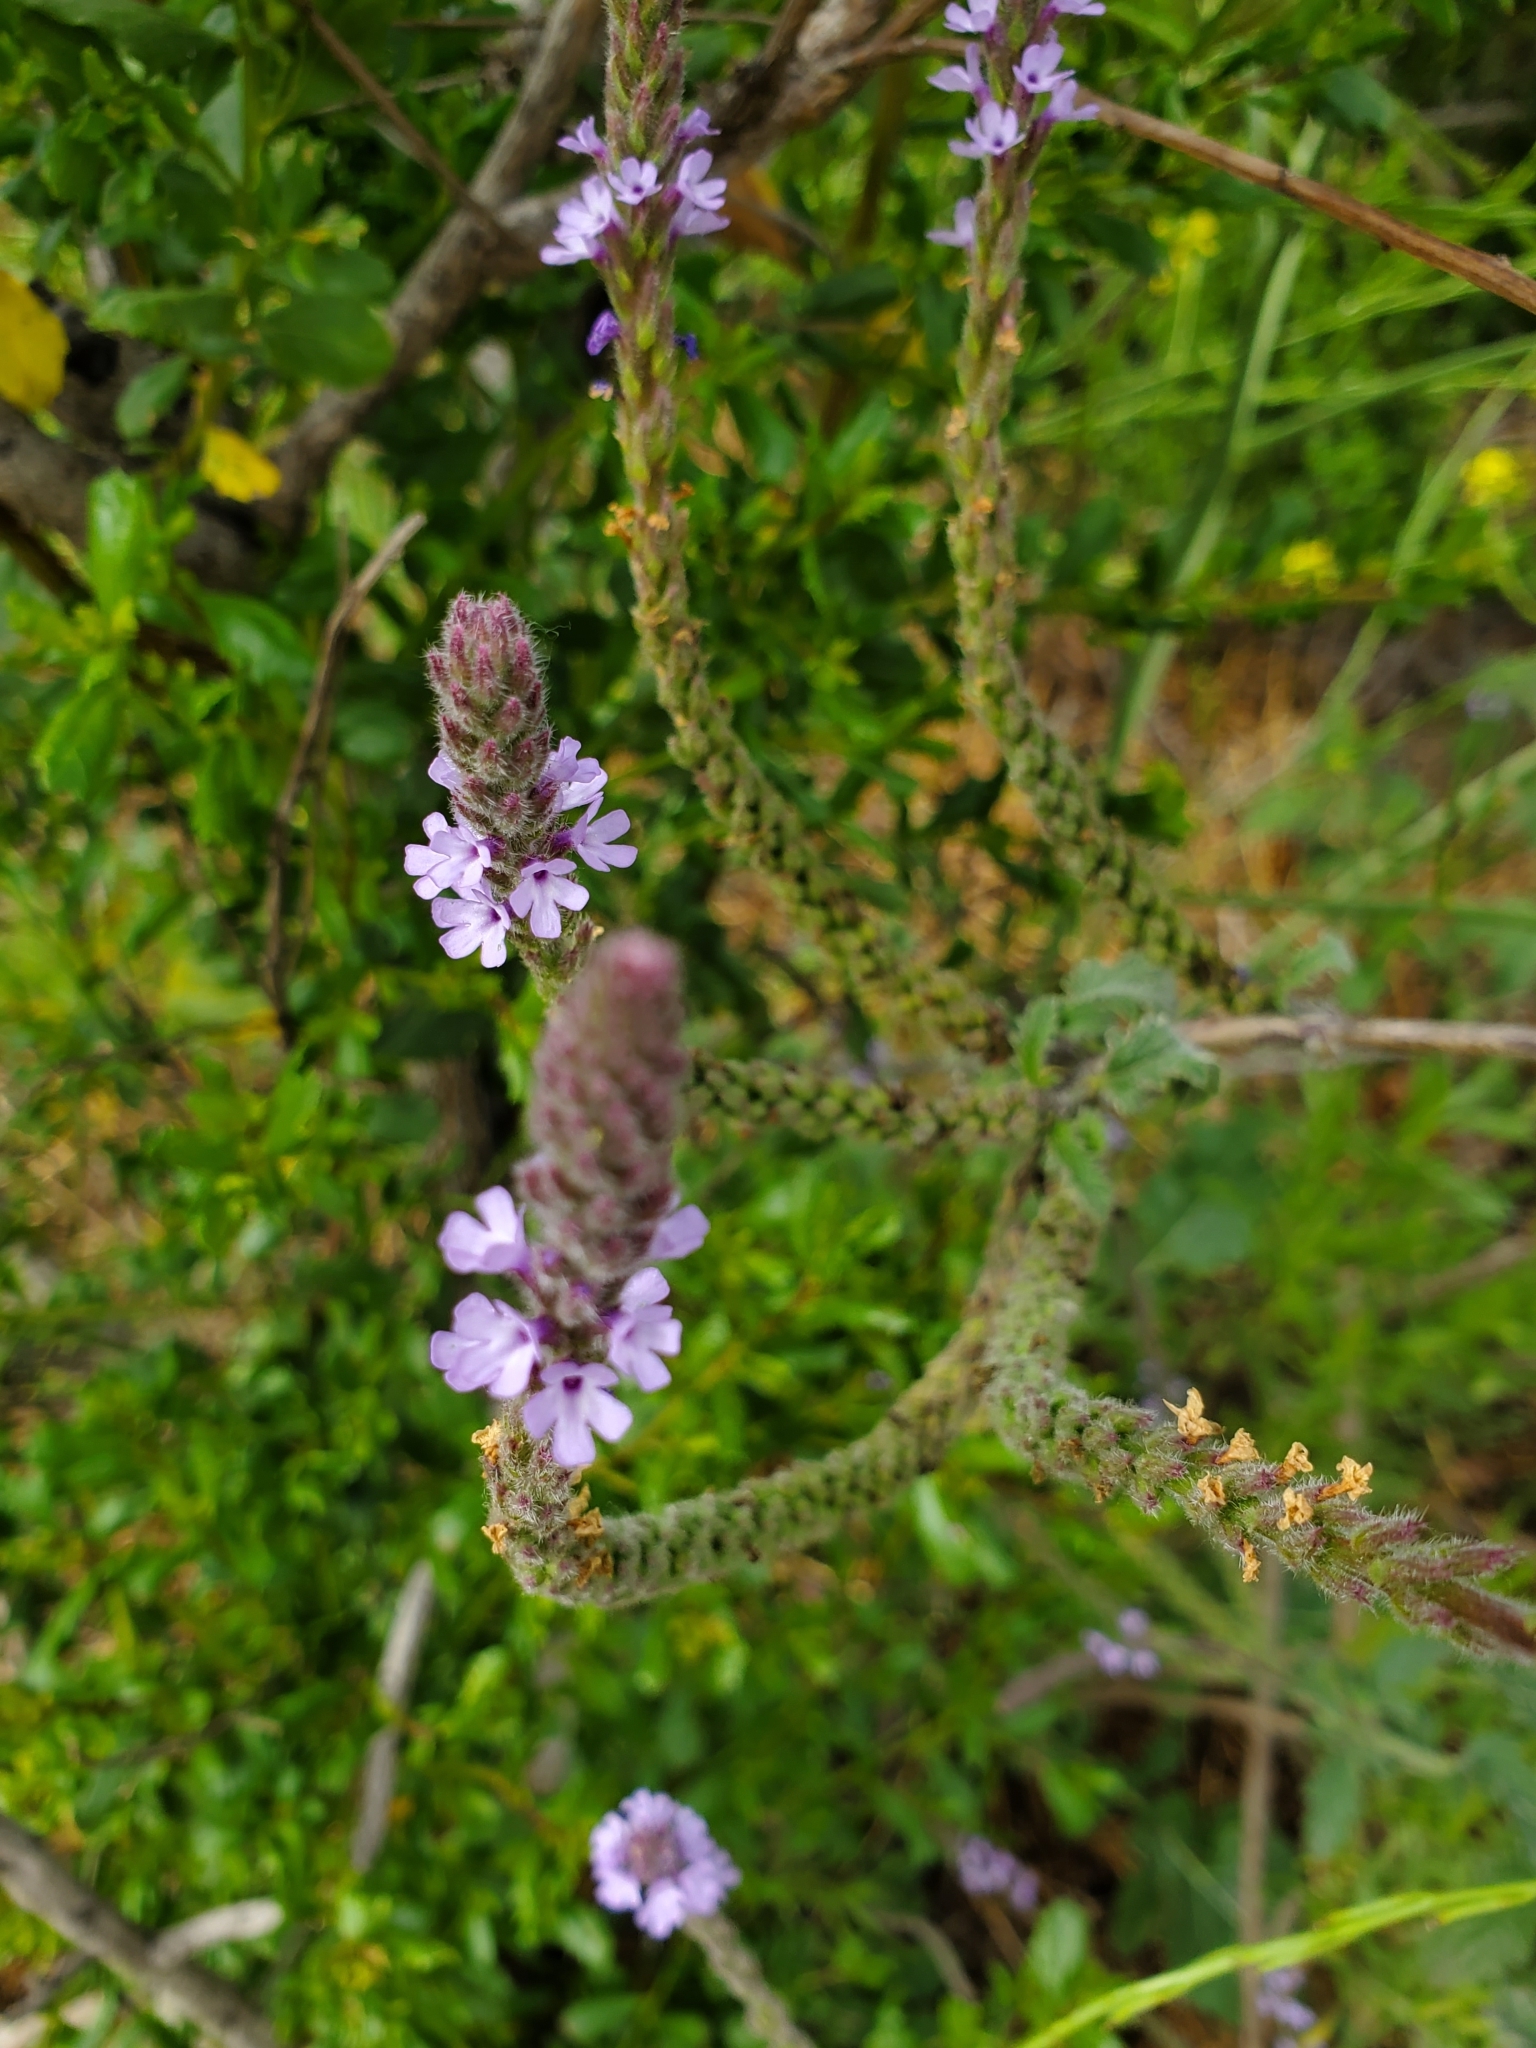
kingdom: Plantae
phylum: Tracheophyta
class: Magnoliopsida
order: Lamiales
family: Verbenaceae
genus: Verbena
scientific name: Verbena lasiostachys
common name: Vervain
